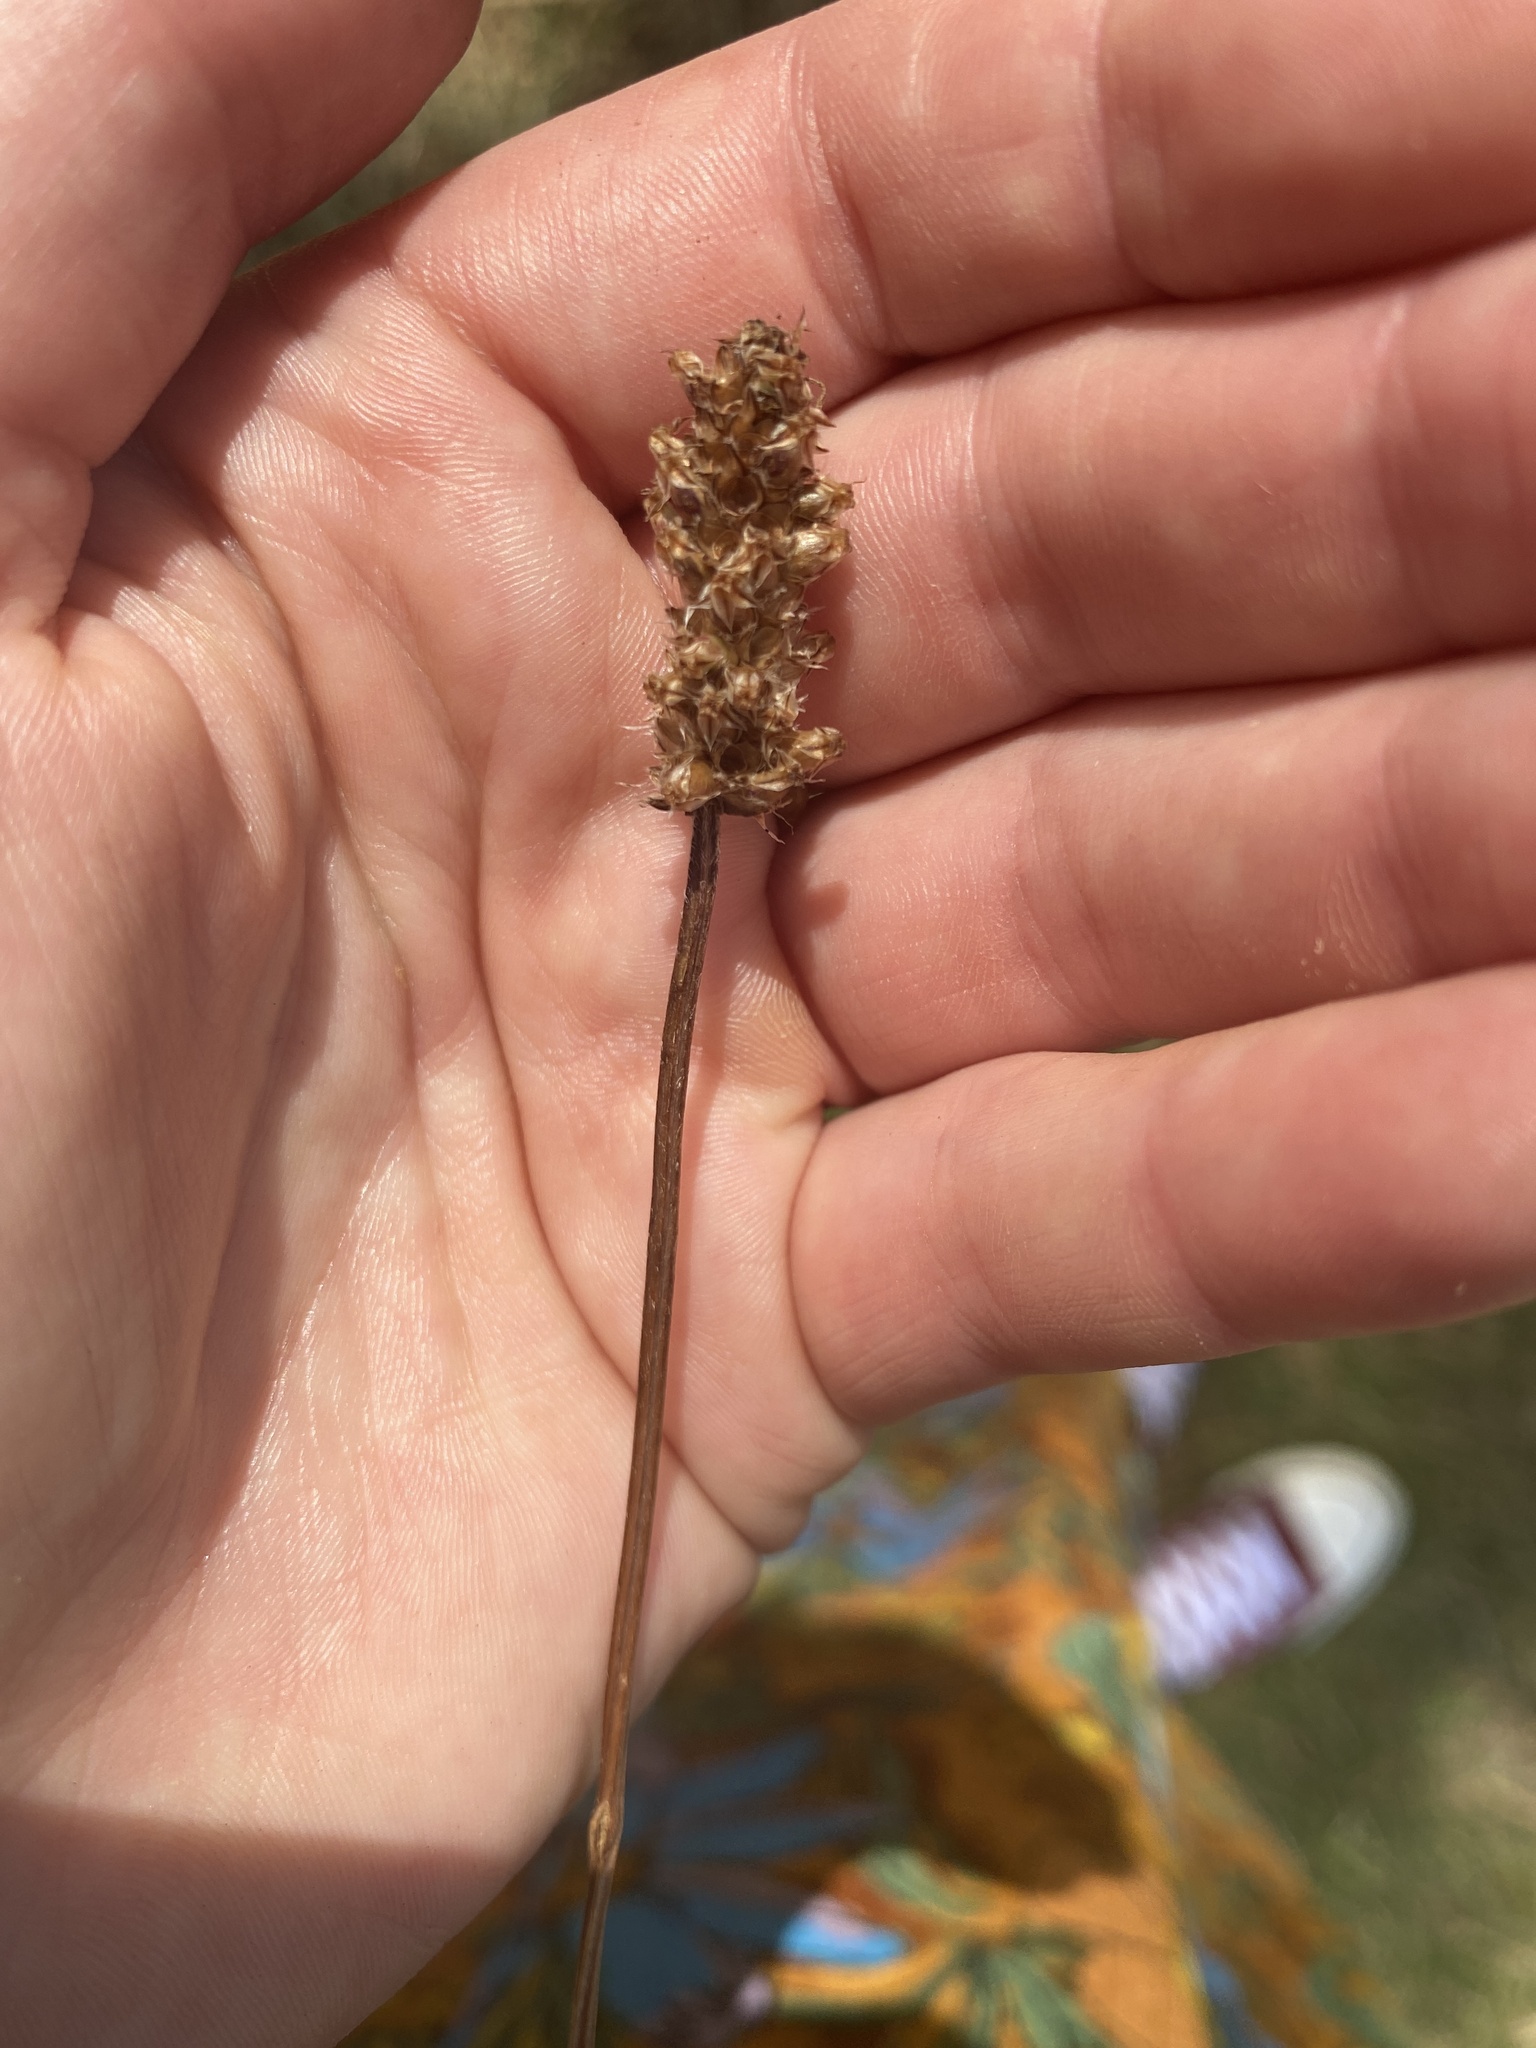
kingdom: Plantae
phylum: Tracheophyta
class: Magnoliopsida
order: Lamiales
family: Plantaginaceae
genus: Plantago
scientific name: Plantago lanceolata
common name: Ribwort plantain
